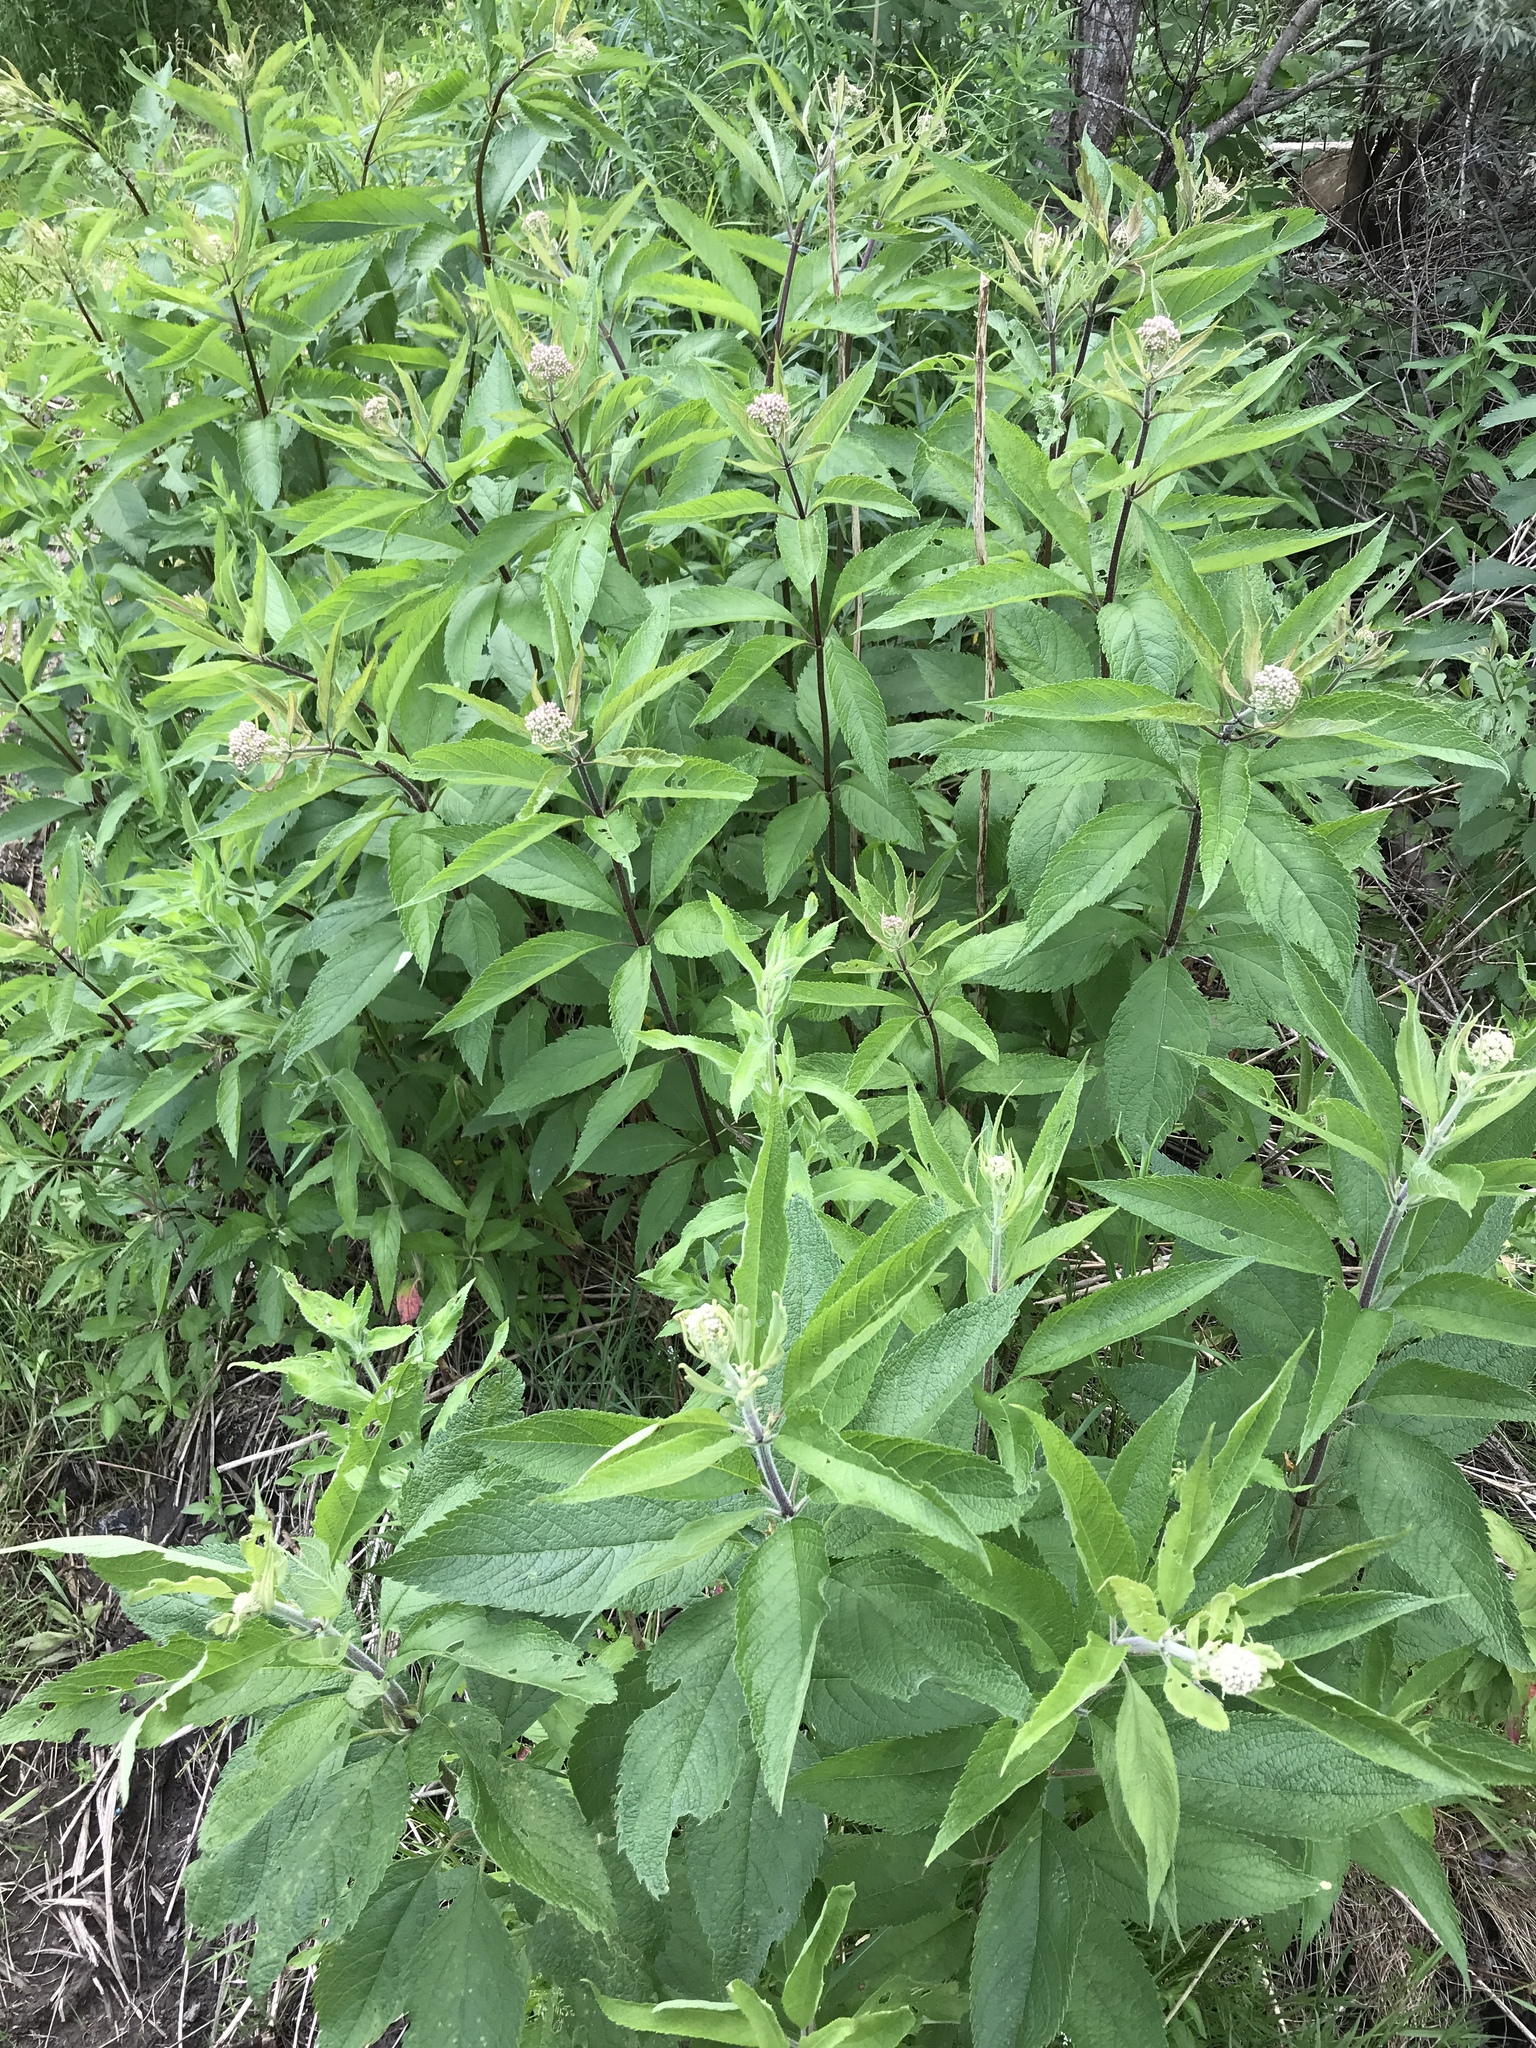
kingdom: Plantae
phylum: Tracheophyta
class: Magnoliopsida
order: Asterales
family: Asteraceae
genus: Eutrochium
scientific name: Eutrochium maculatum
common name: Spotted joe pye weed
